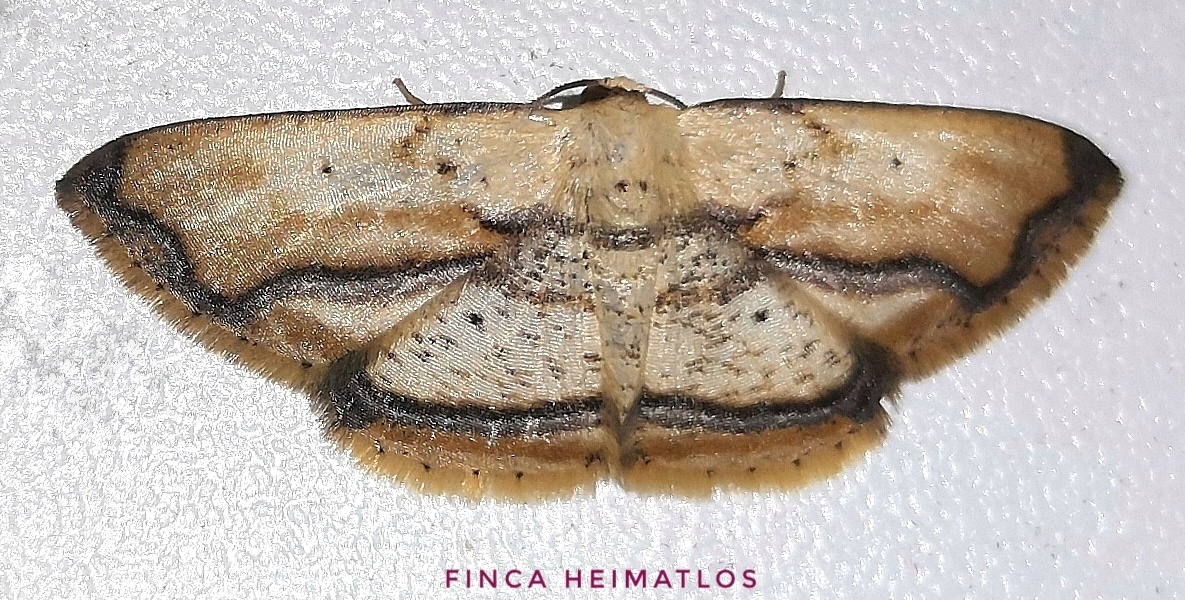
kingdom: Animalia
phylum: Arthropoda
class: Insecta
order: Lepidoptera
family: Geometridae
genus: Campatonema
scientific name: Campatonema marginata
